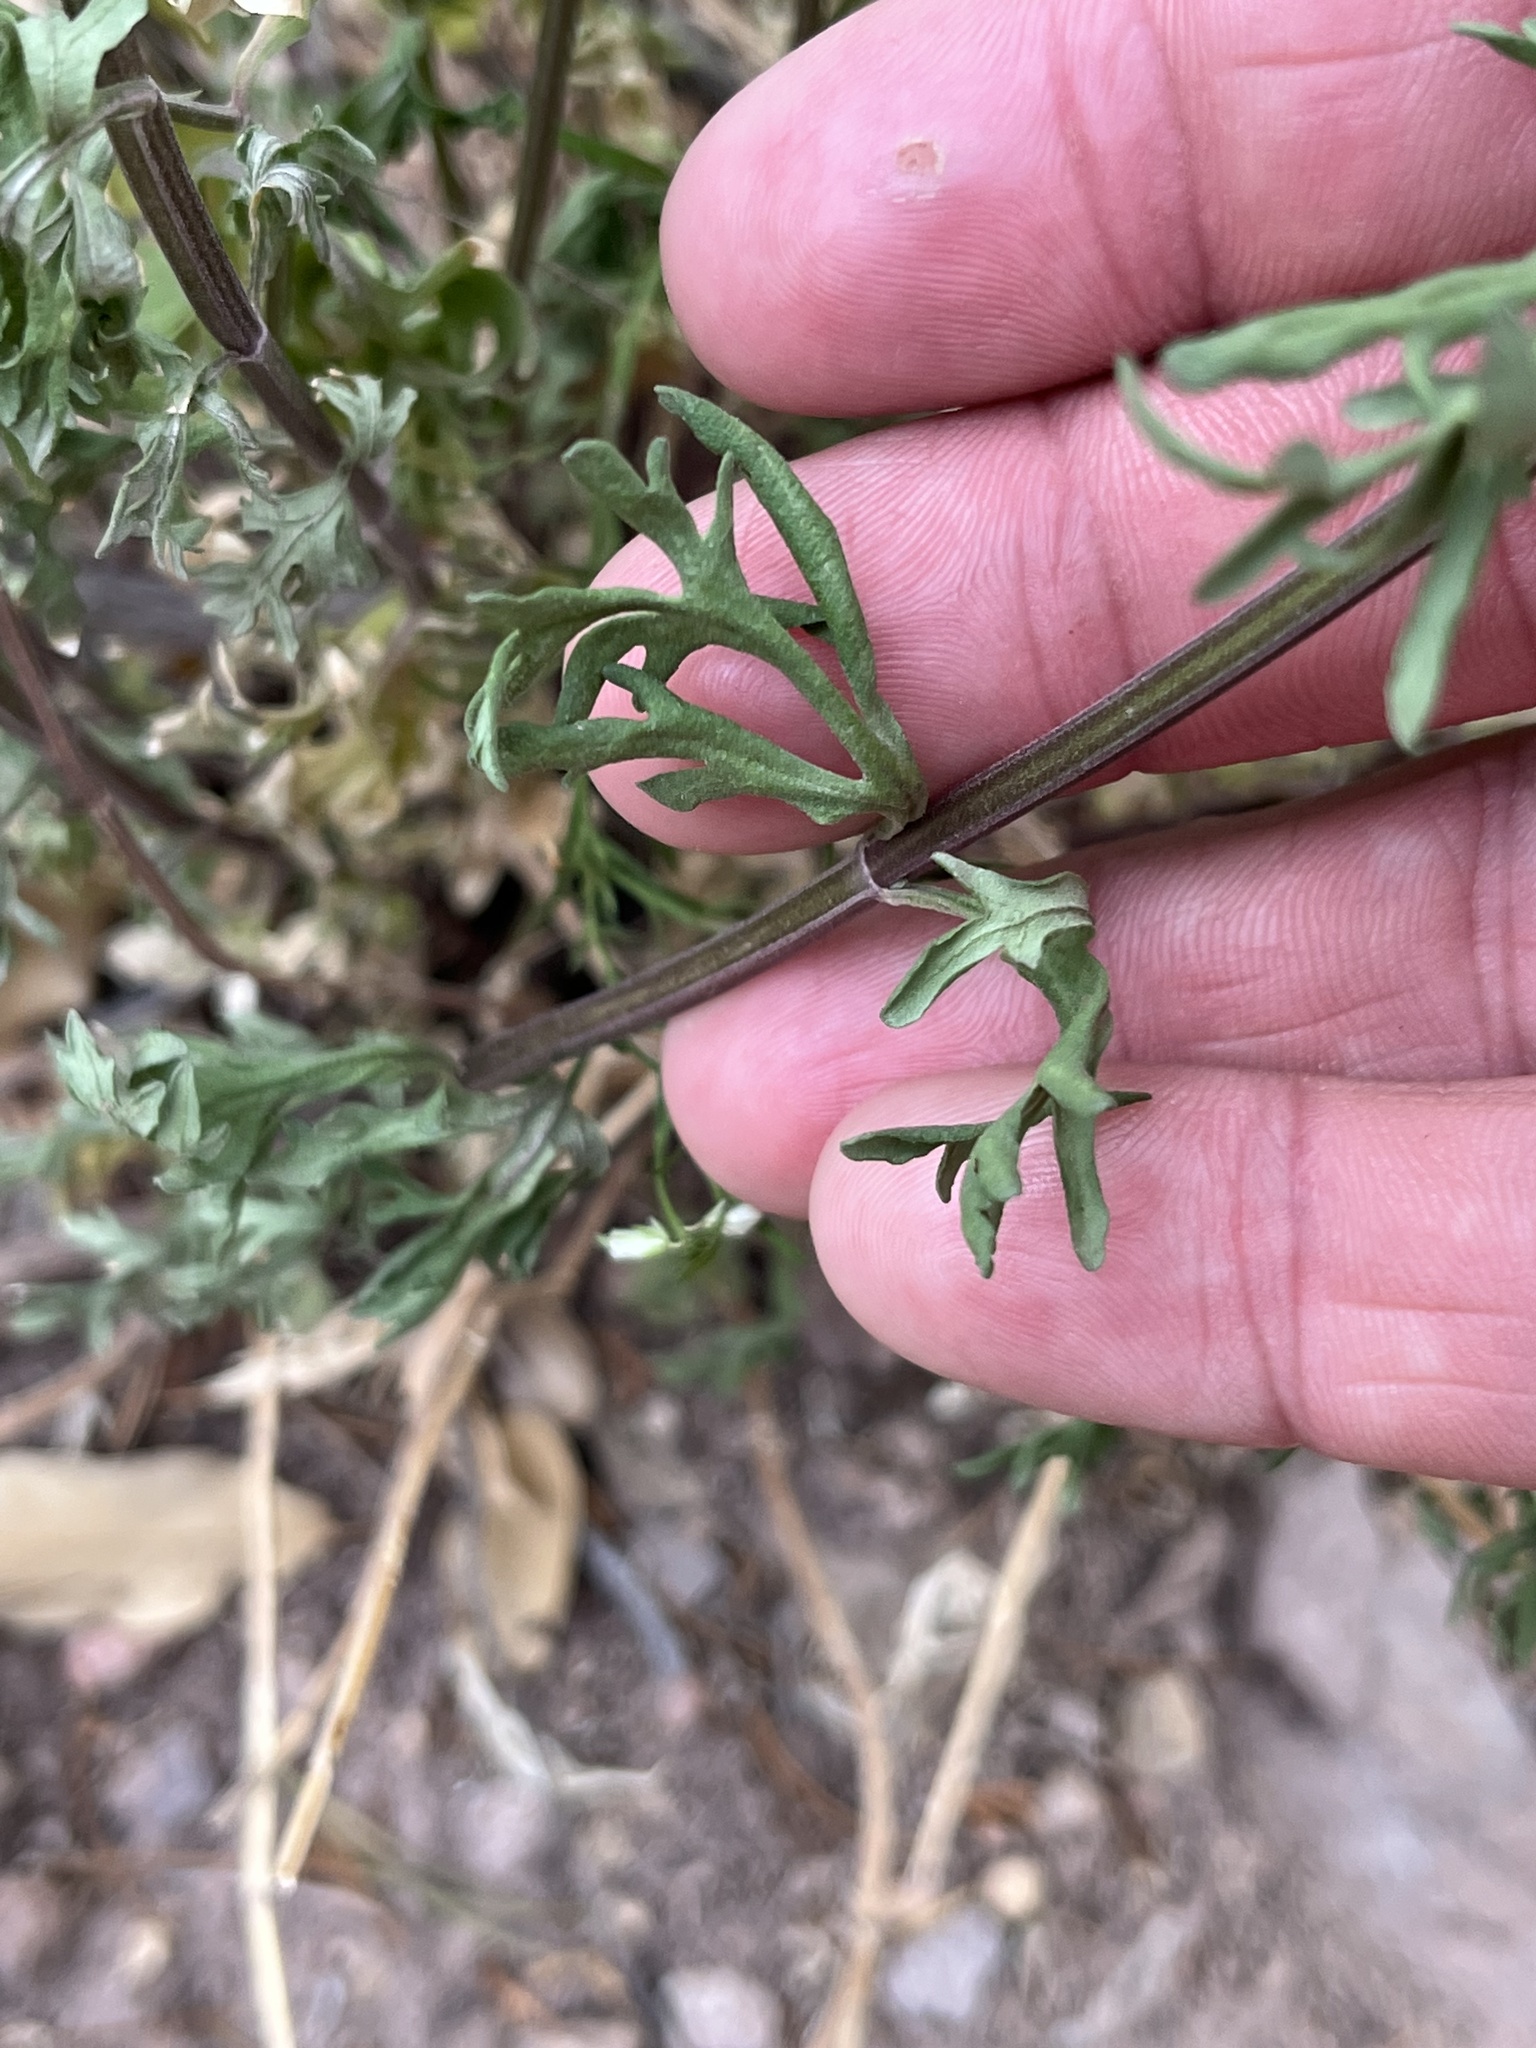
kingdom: Plantae
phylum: Tracheophyta
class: Magnoliopsida
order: Lamiales
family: Lamiaceae
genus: Teucrium
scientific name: Teucrium coahuilanum
